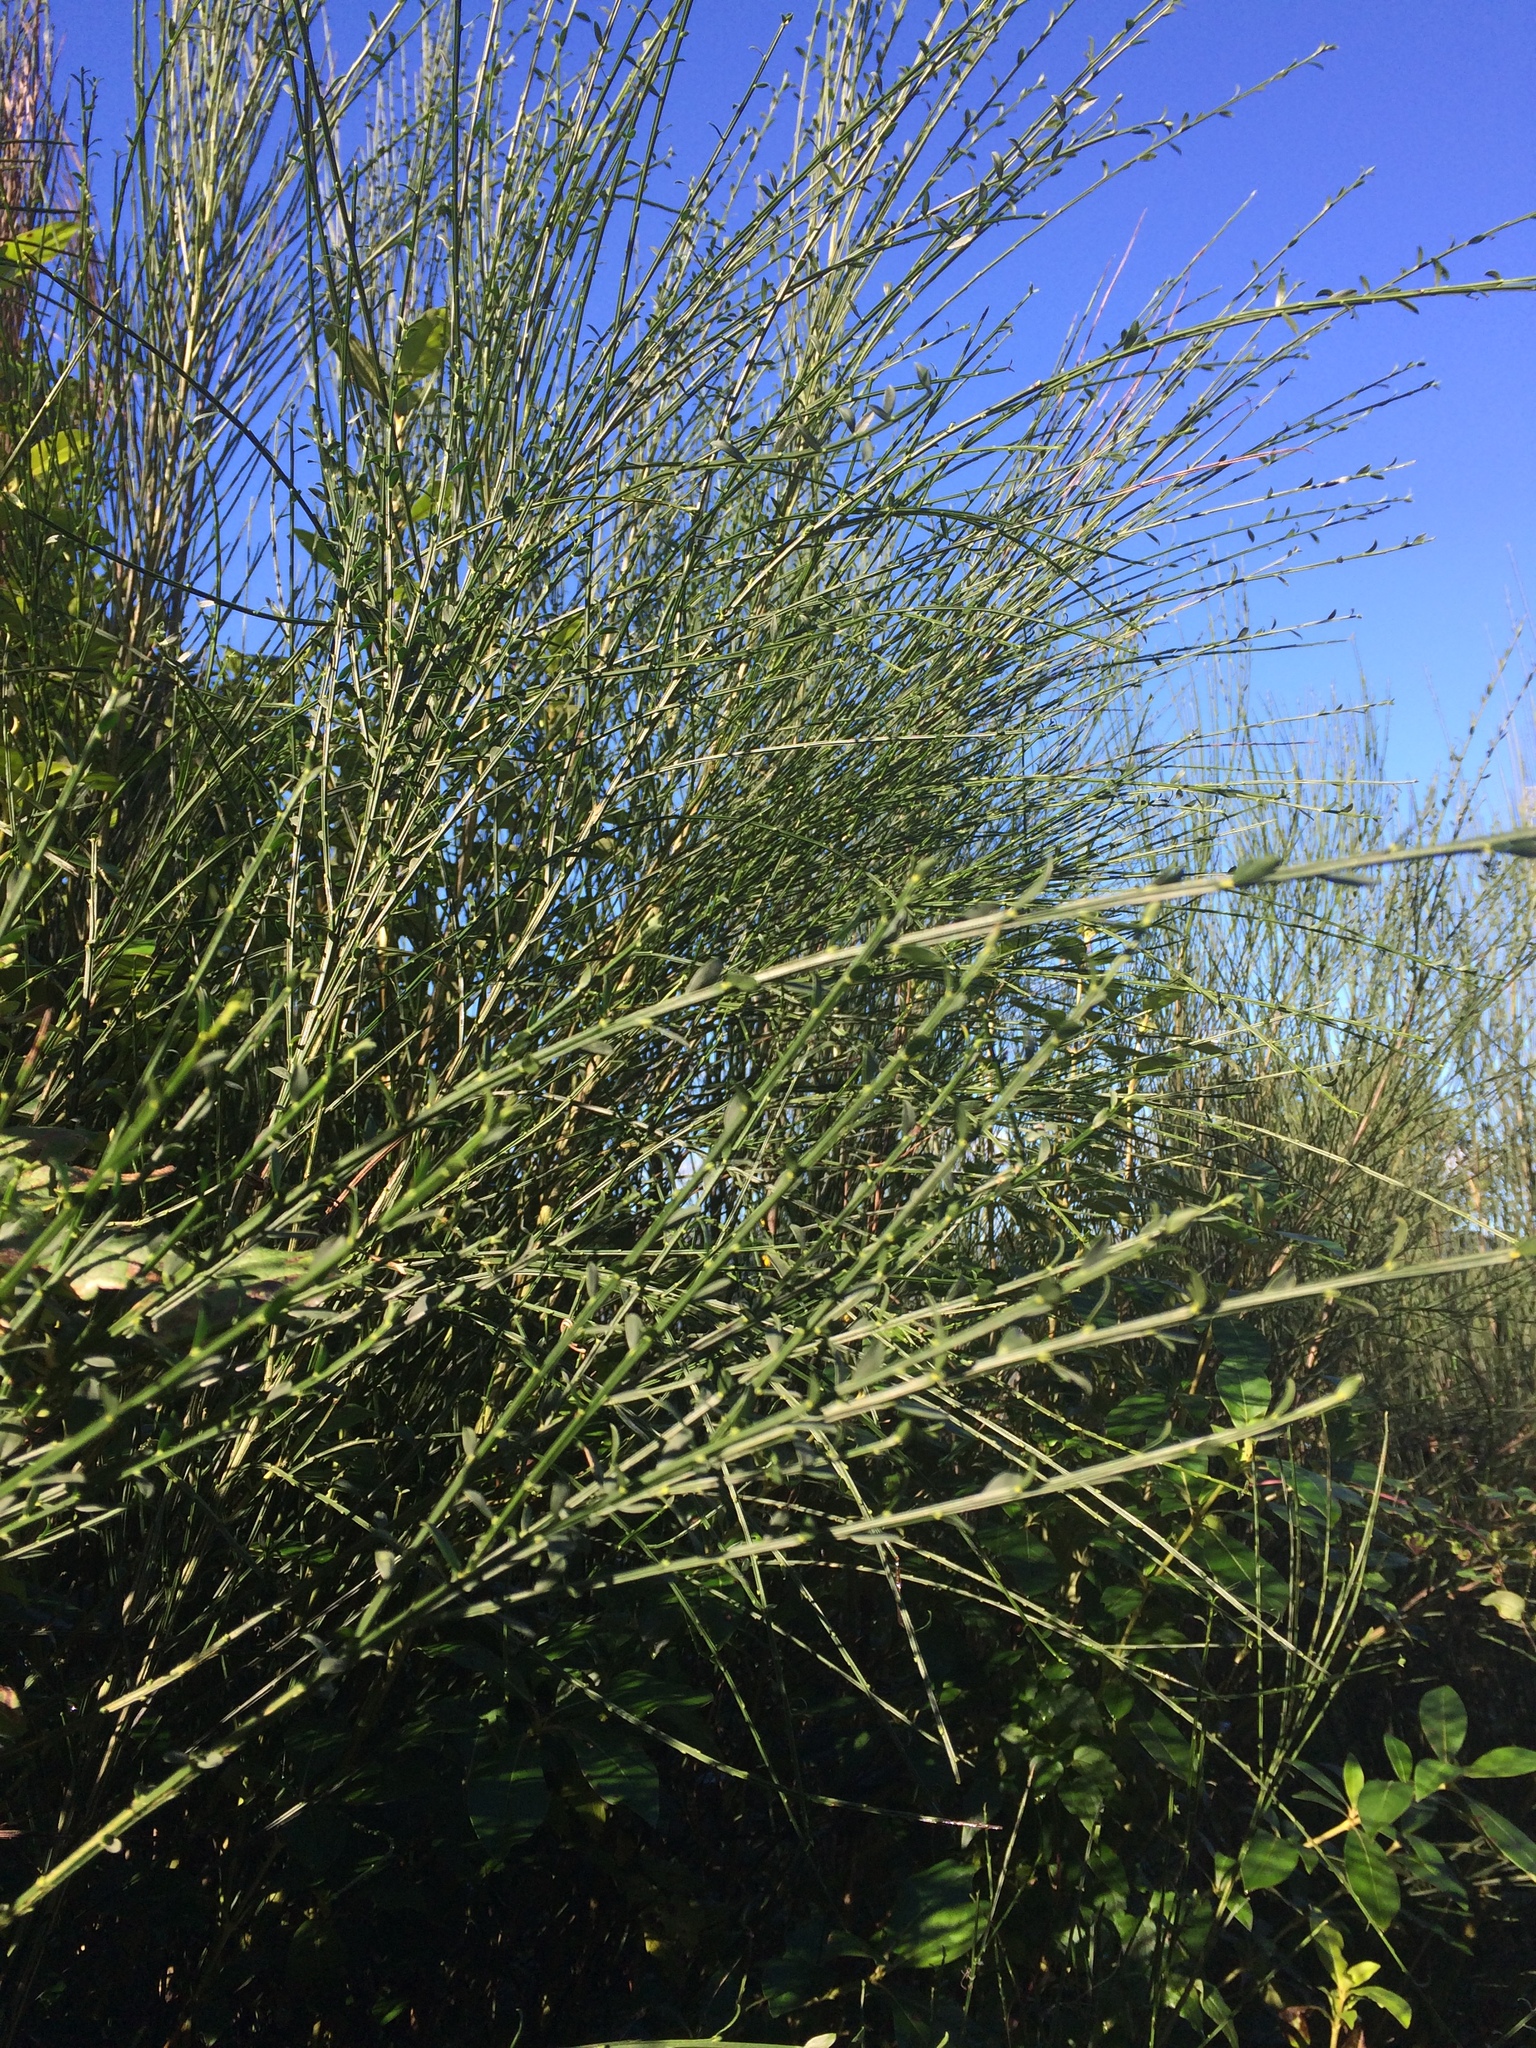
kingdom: Plantae
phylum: Tracheophyta
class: Magnoliopsida
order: Fabales
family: Fabaceae
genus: Cytisus
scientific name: Cytisus scoparius
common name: Scotch broom
